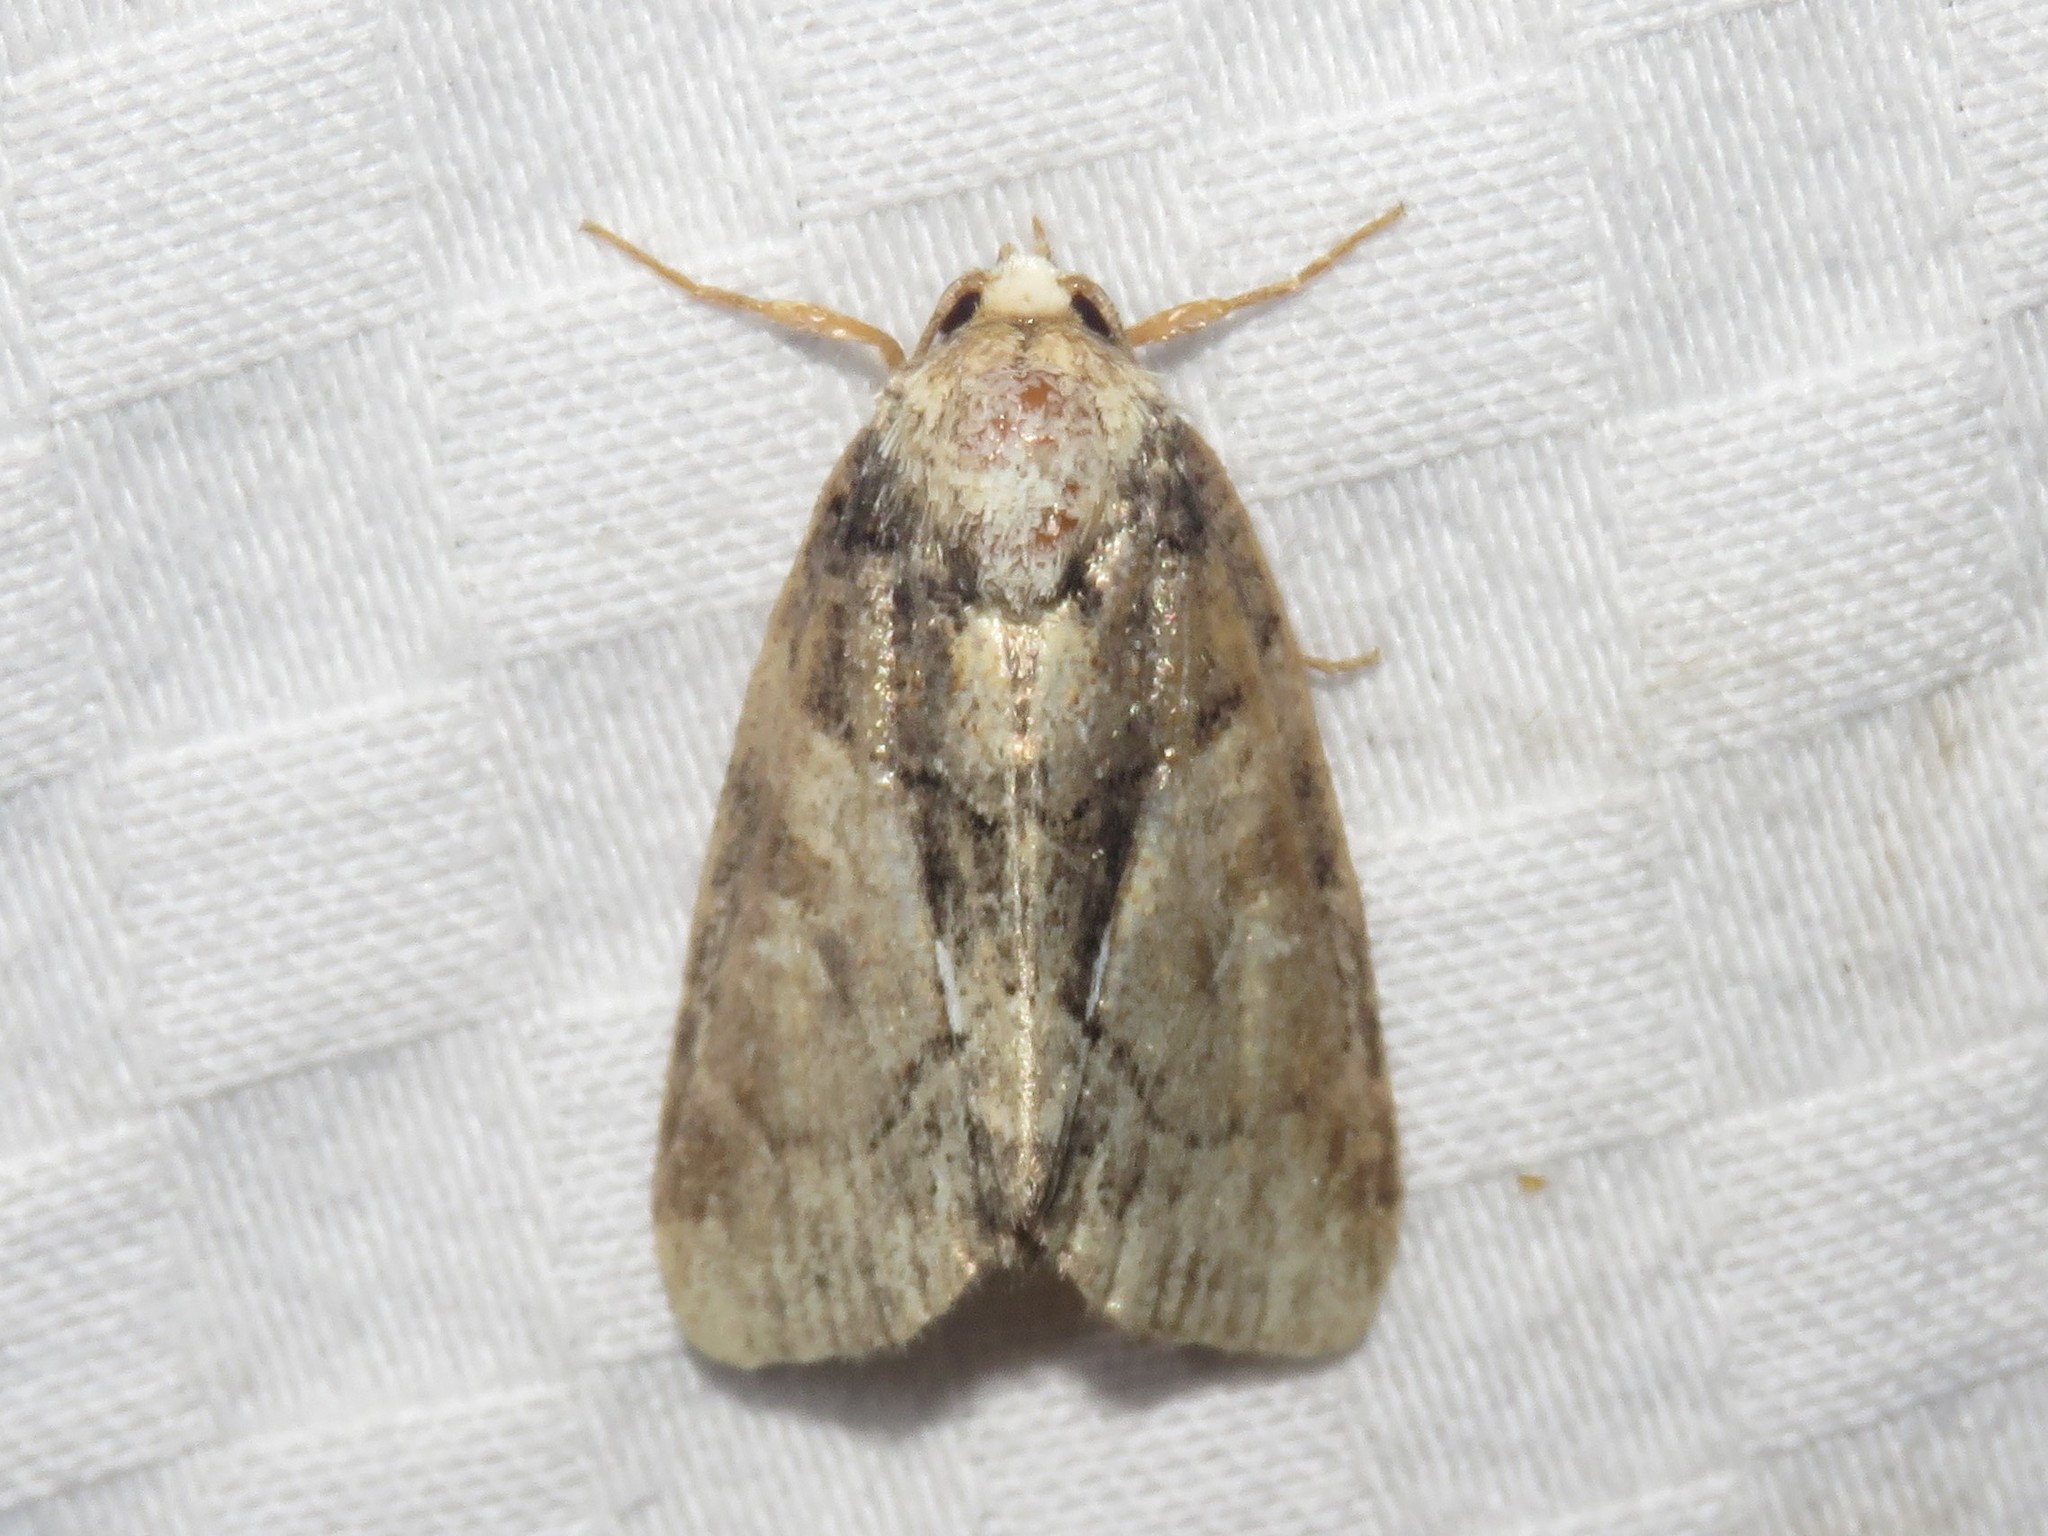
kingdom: Animalia
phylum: Arthropoda
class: Insecta
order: Lepidoptera
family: Noctuidae
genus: Chytonix
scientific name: Chytonix palliatricula
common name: Cloaked marvel
